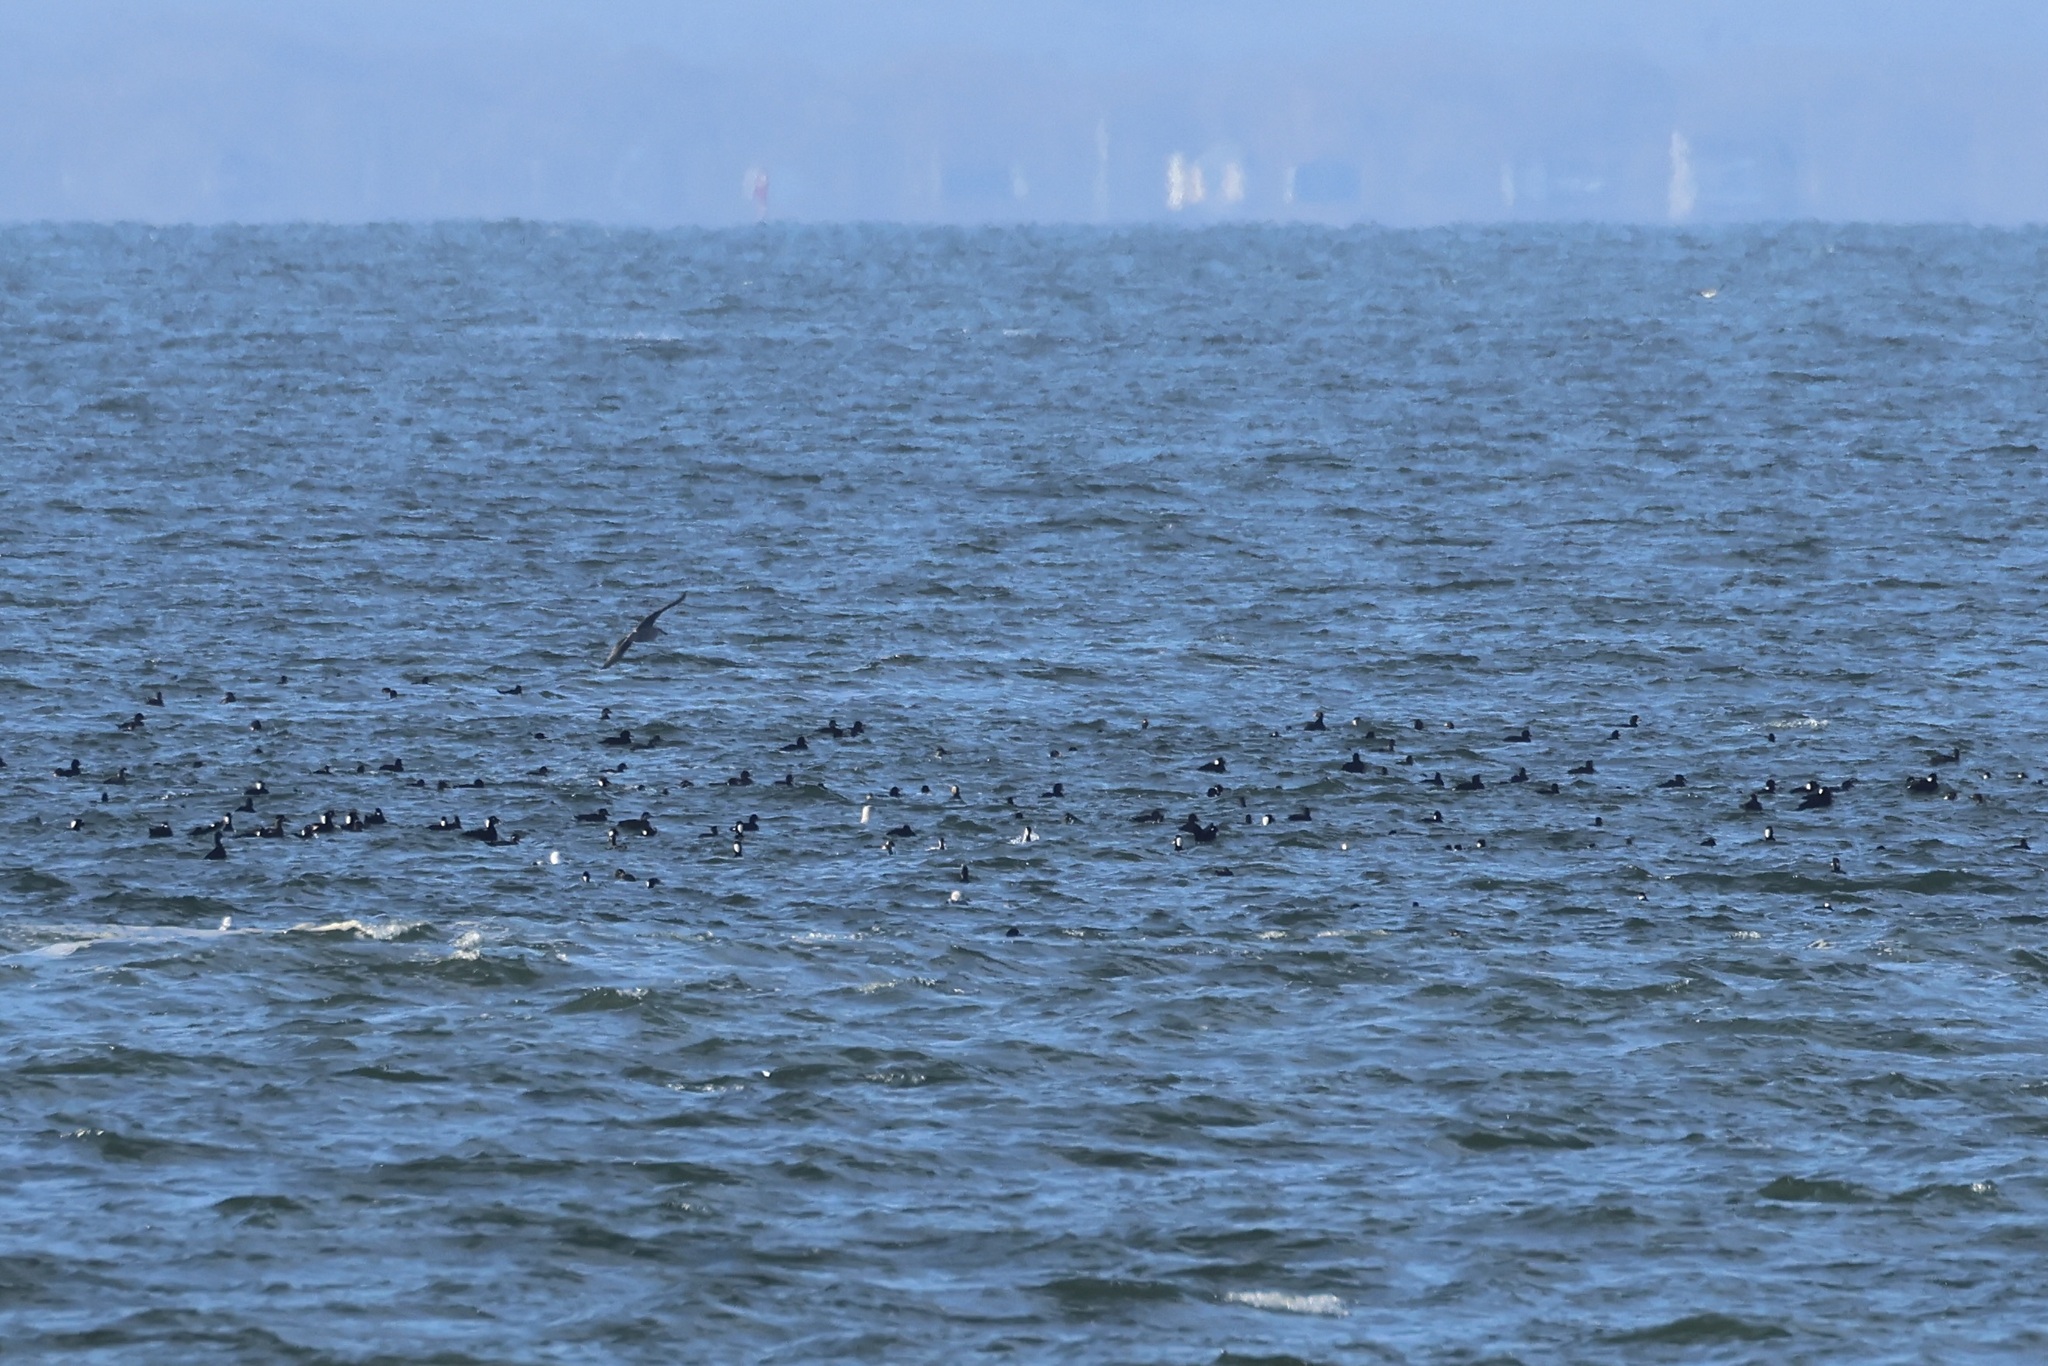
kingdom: Animalia
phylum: Chordata
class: Aves
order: Anseriformes
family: Anatidae
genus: Melanitta
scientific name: Melanitta perspicillata
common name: Surf scoter
